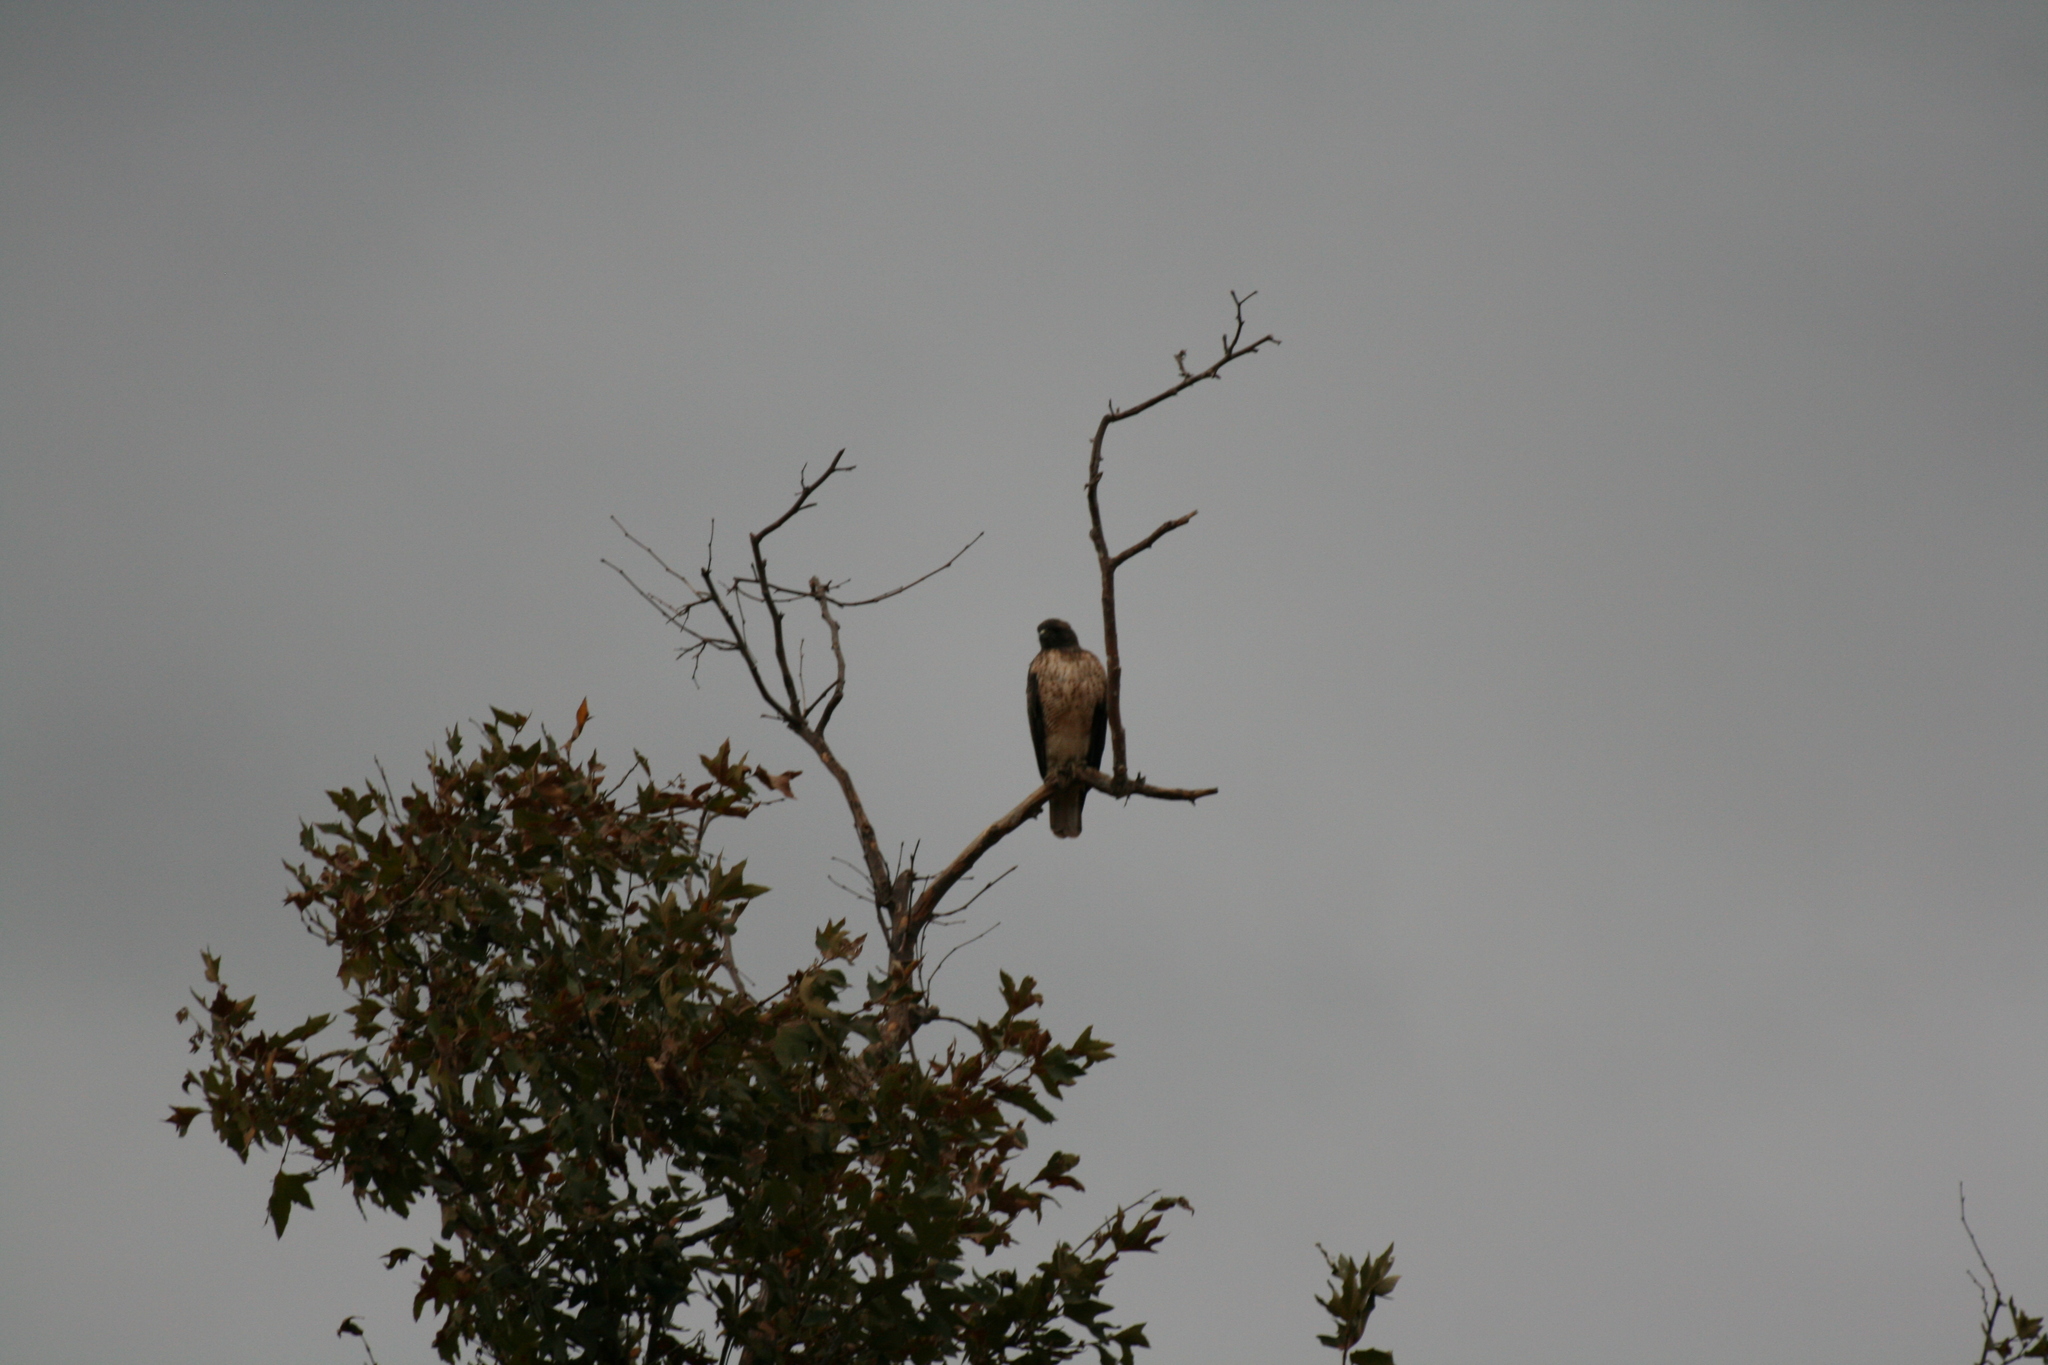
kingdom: Animalia
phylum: Chordata
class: Aves
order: Accipitriformes
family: Accipitridae
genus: Buteo
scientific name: Buteo jamaicensis
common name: Red-tailed hawk
